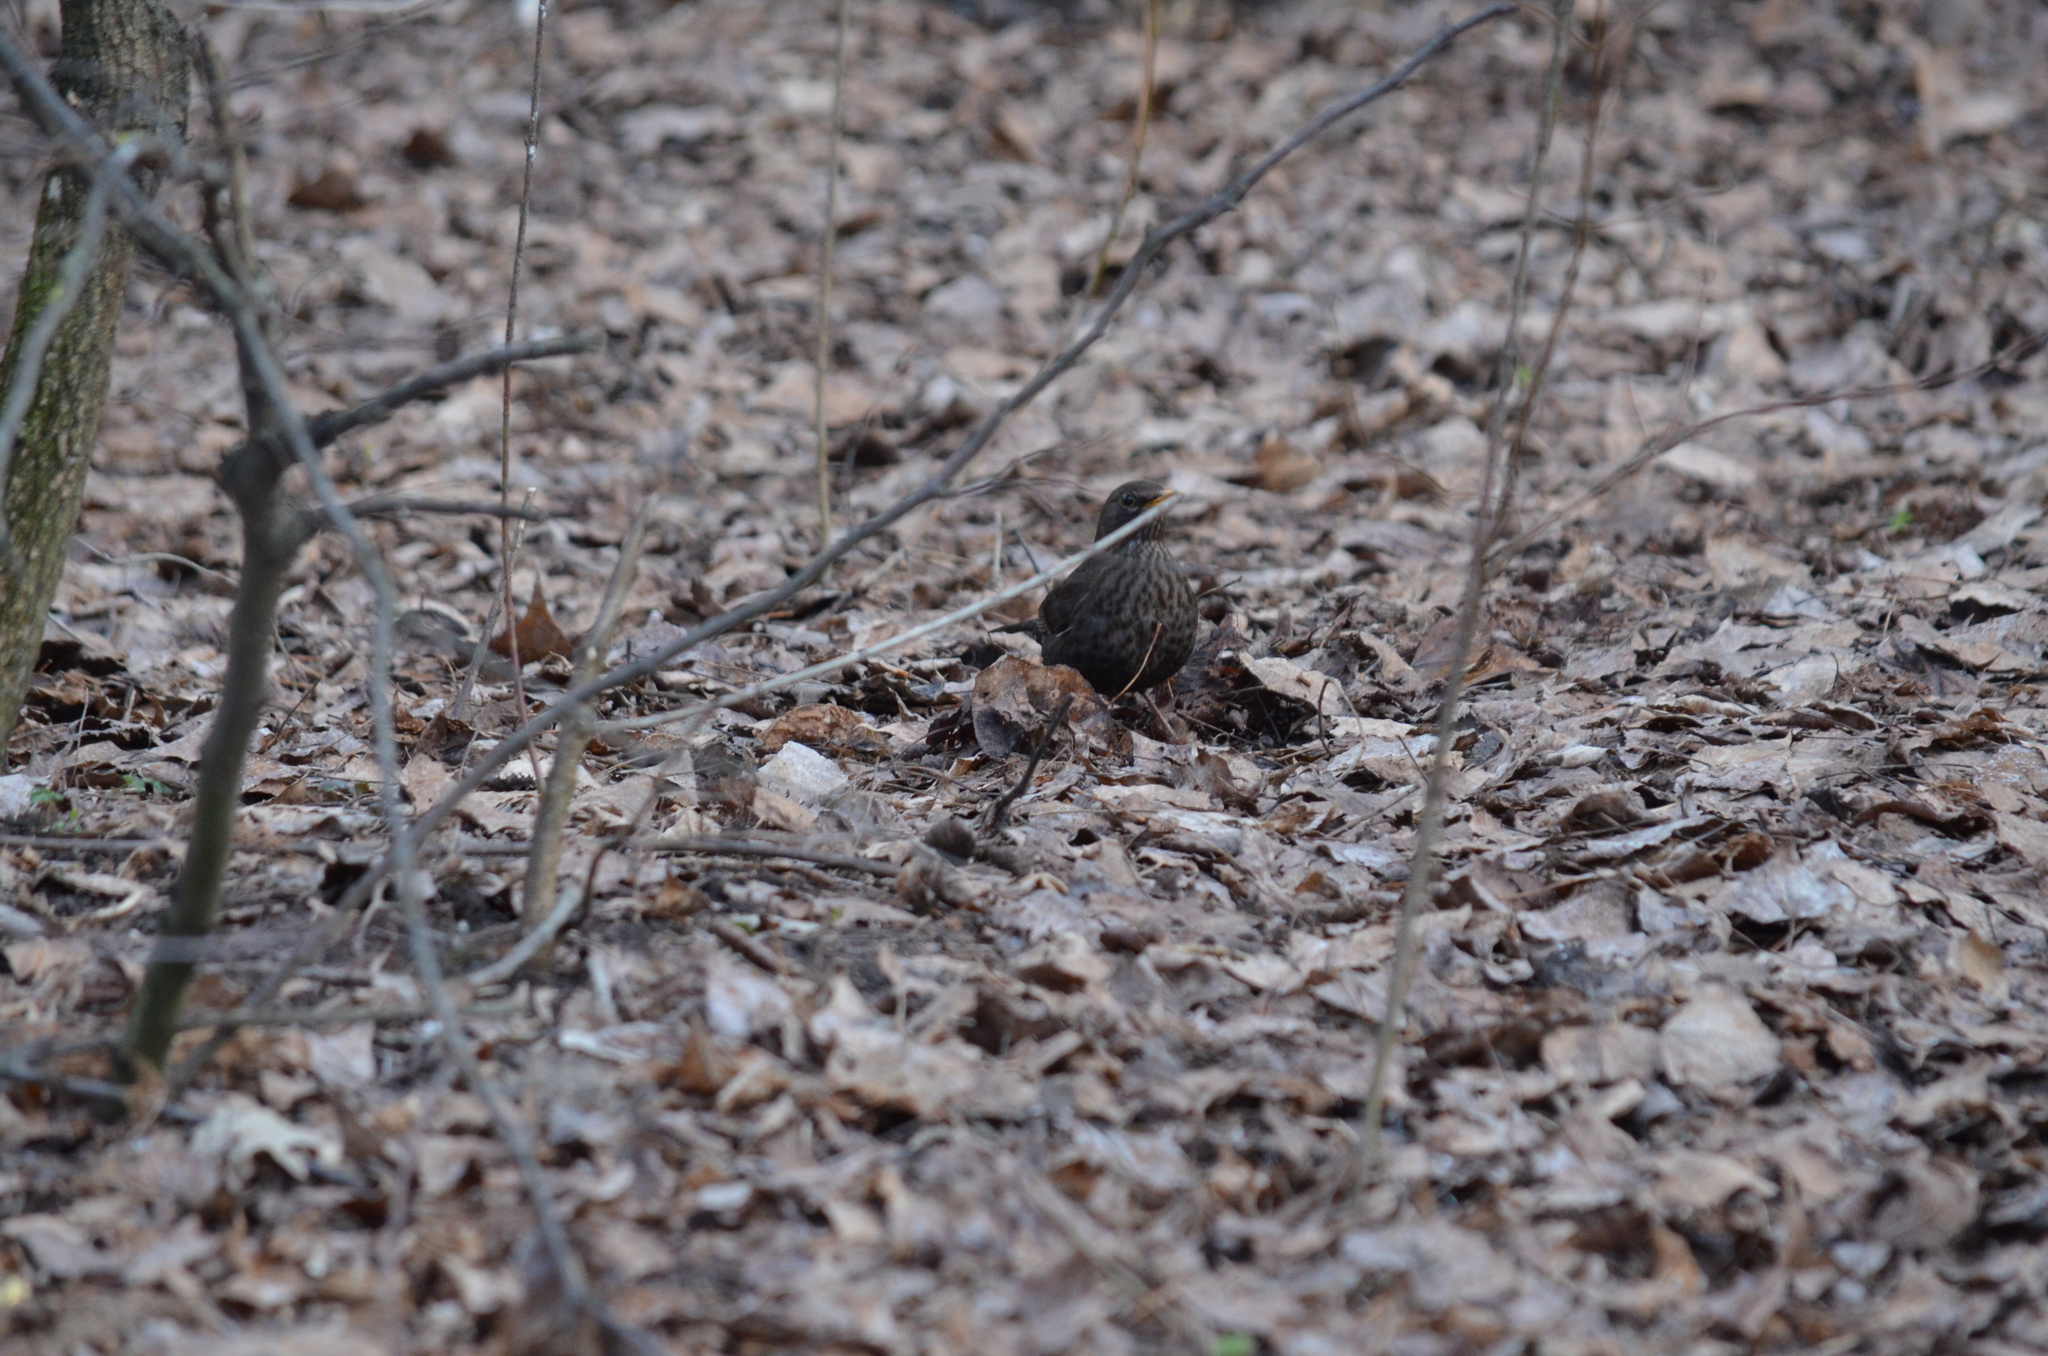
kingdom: Animalia
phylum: Chordata
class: Aves
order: Passeriformes
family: Turdidae
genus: Turdus
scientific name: Turdus merula
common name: Common blackbird
